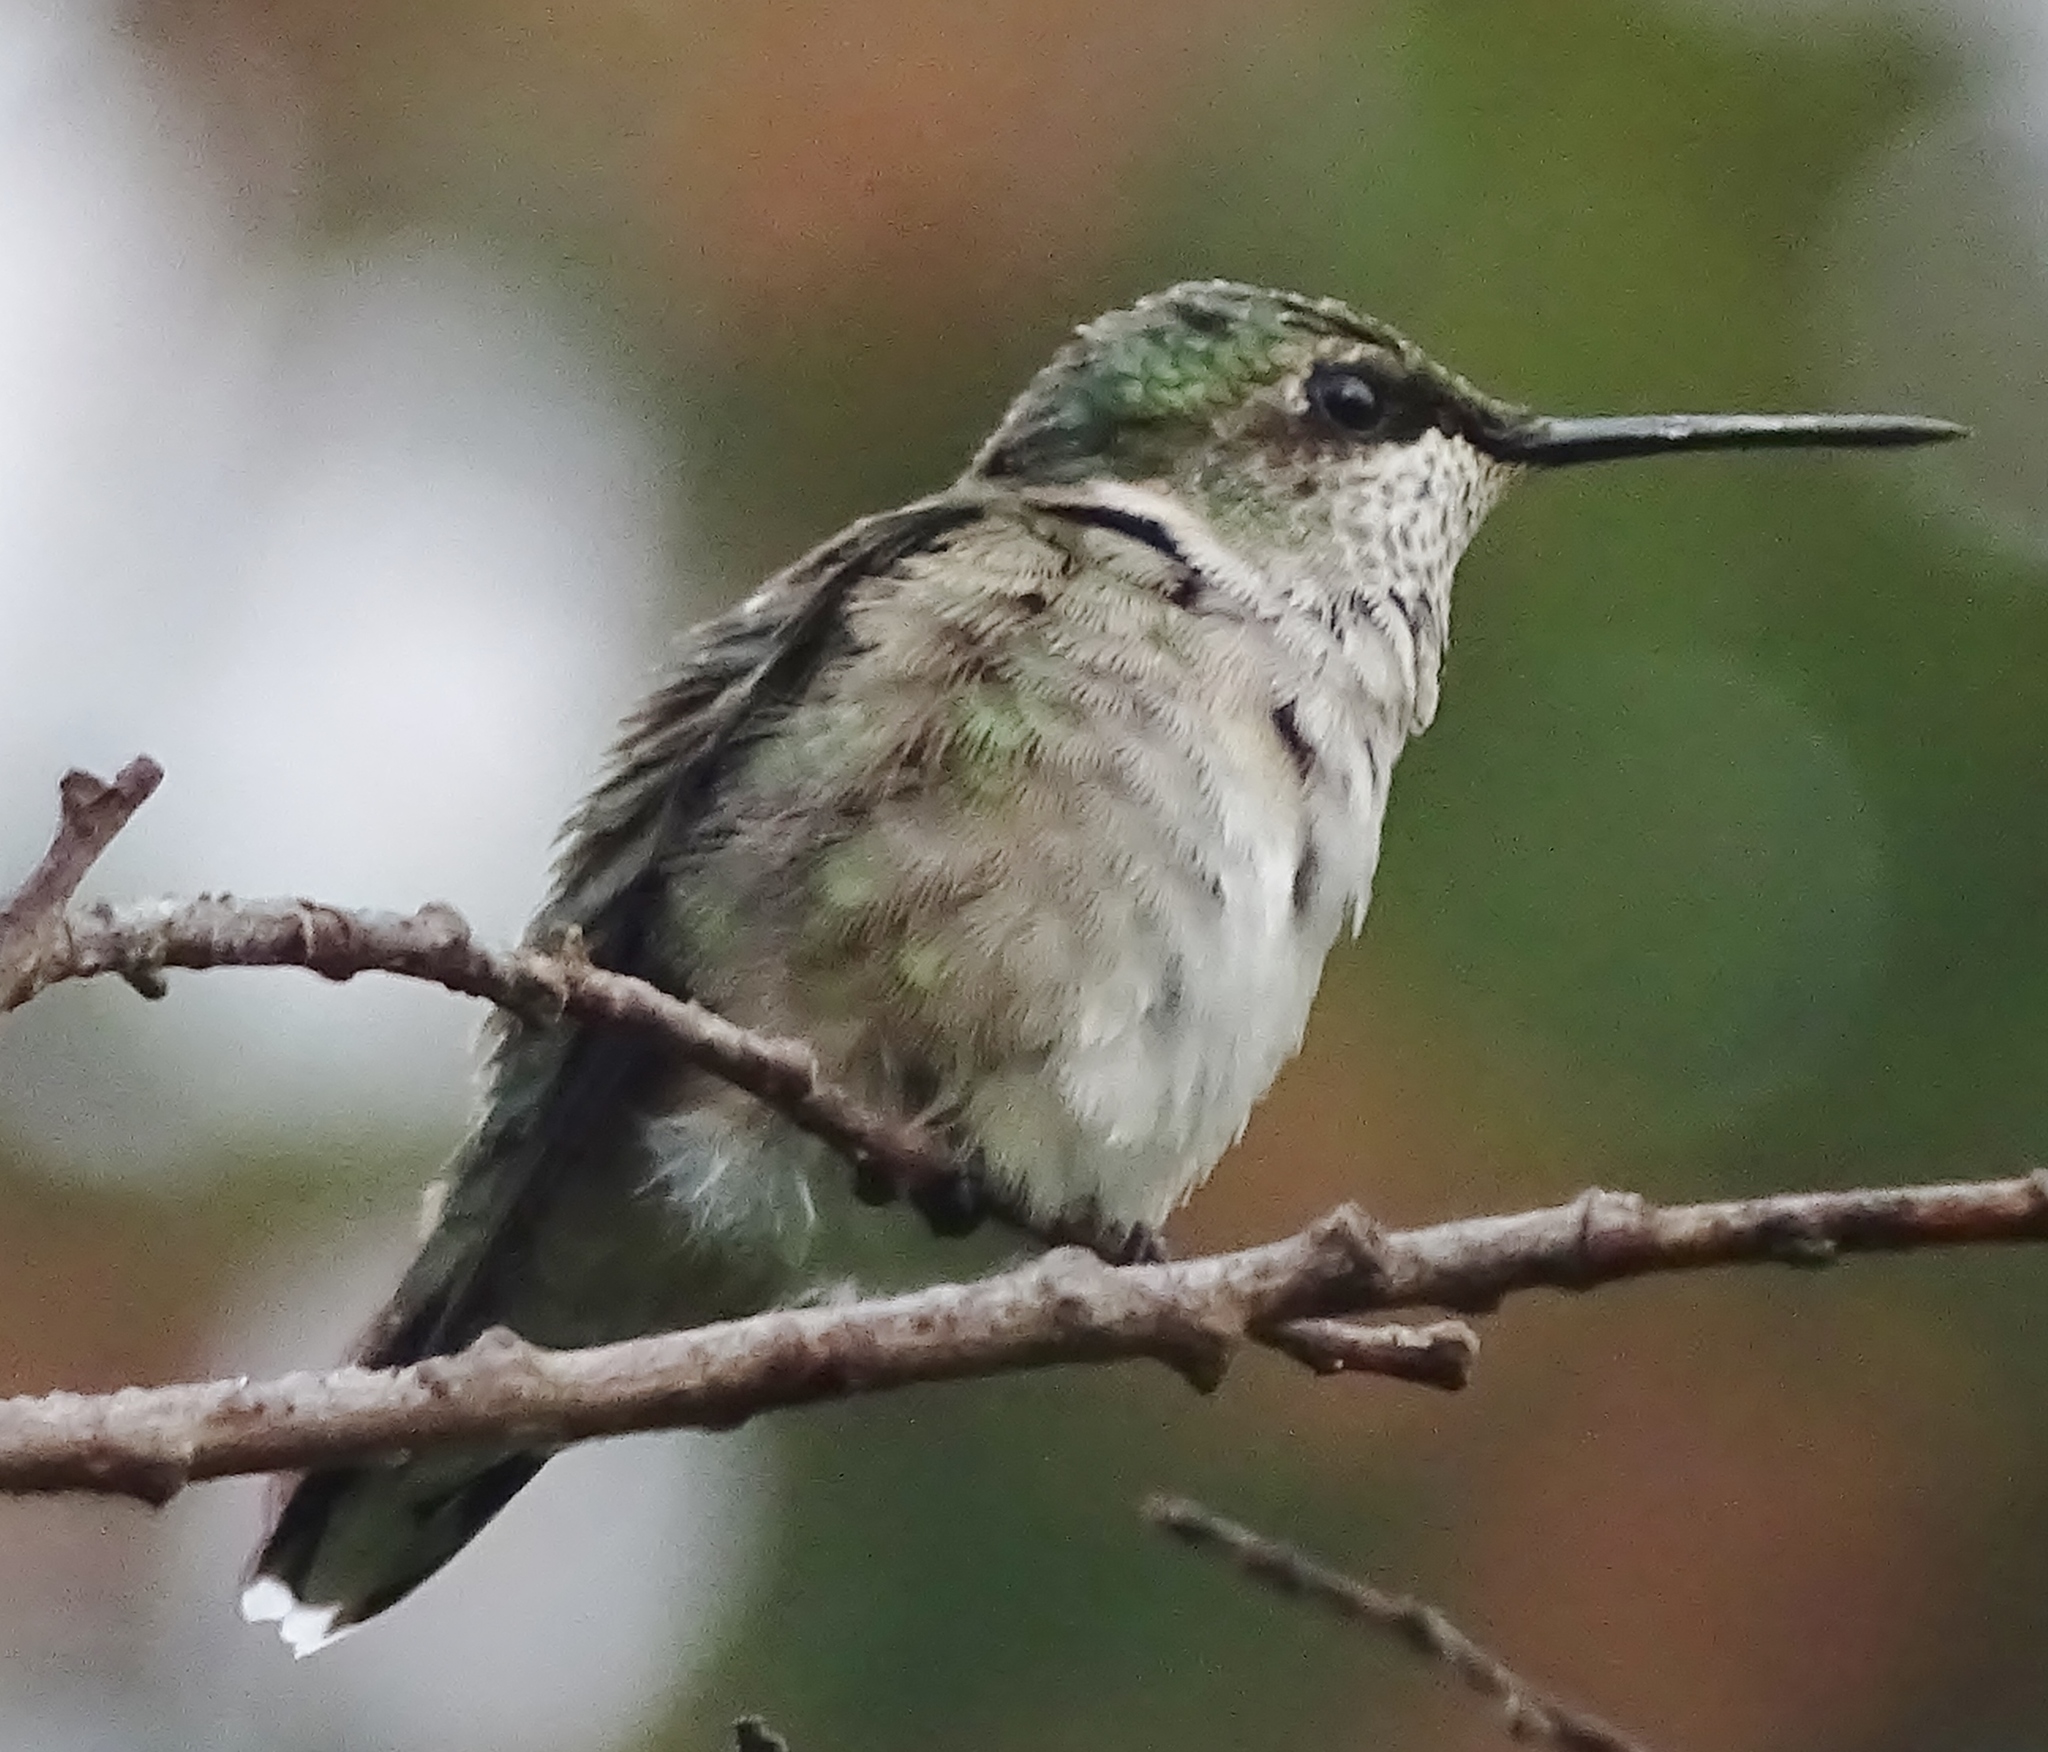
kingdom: Animalia
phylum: Chordata
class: Aves
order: Apodiformes
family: Trochilidae
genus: Archilochus
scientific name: Archilochus colubris
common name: Ruby-throated hummingbird
